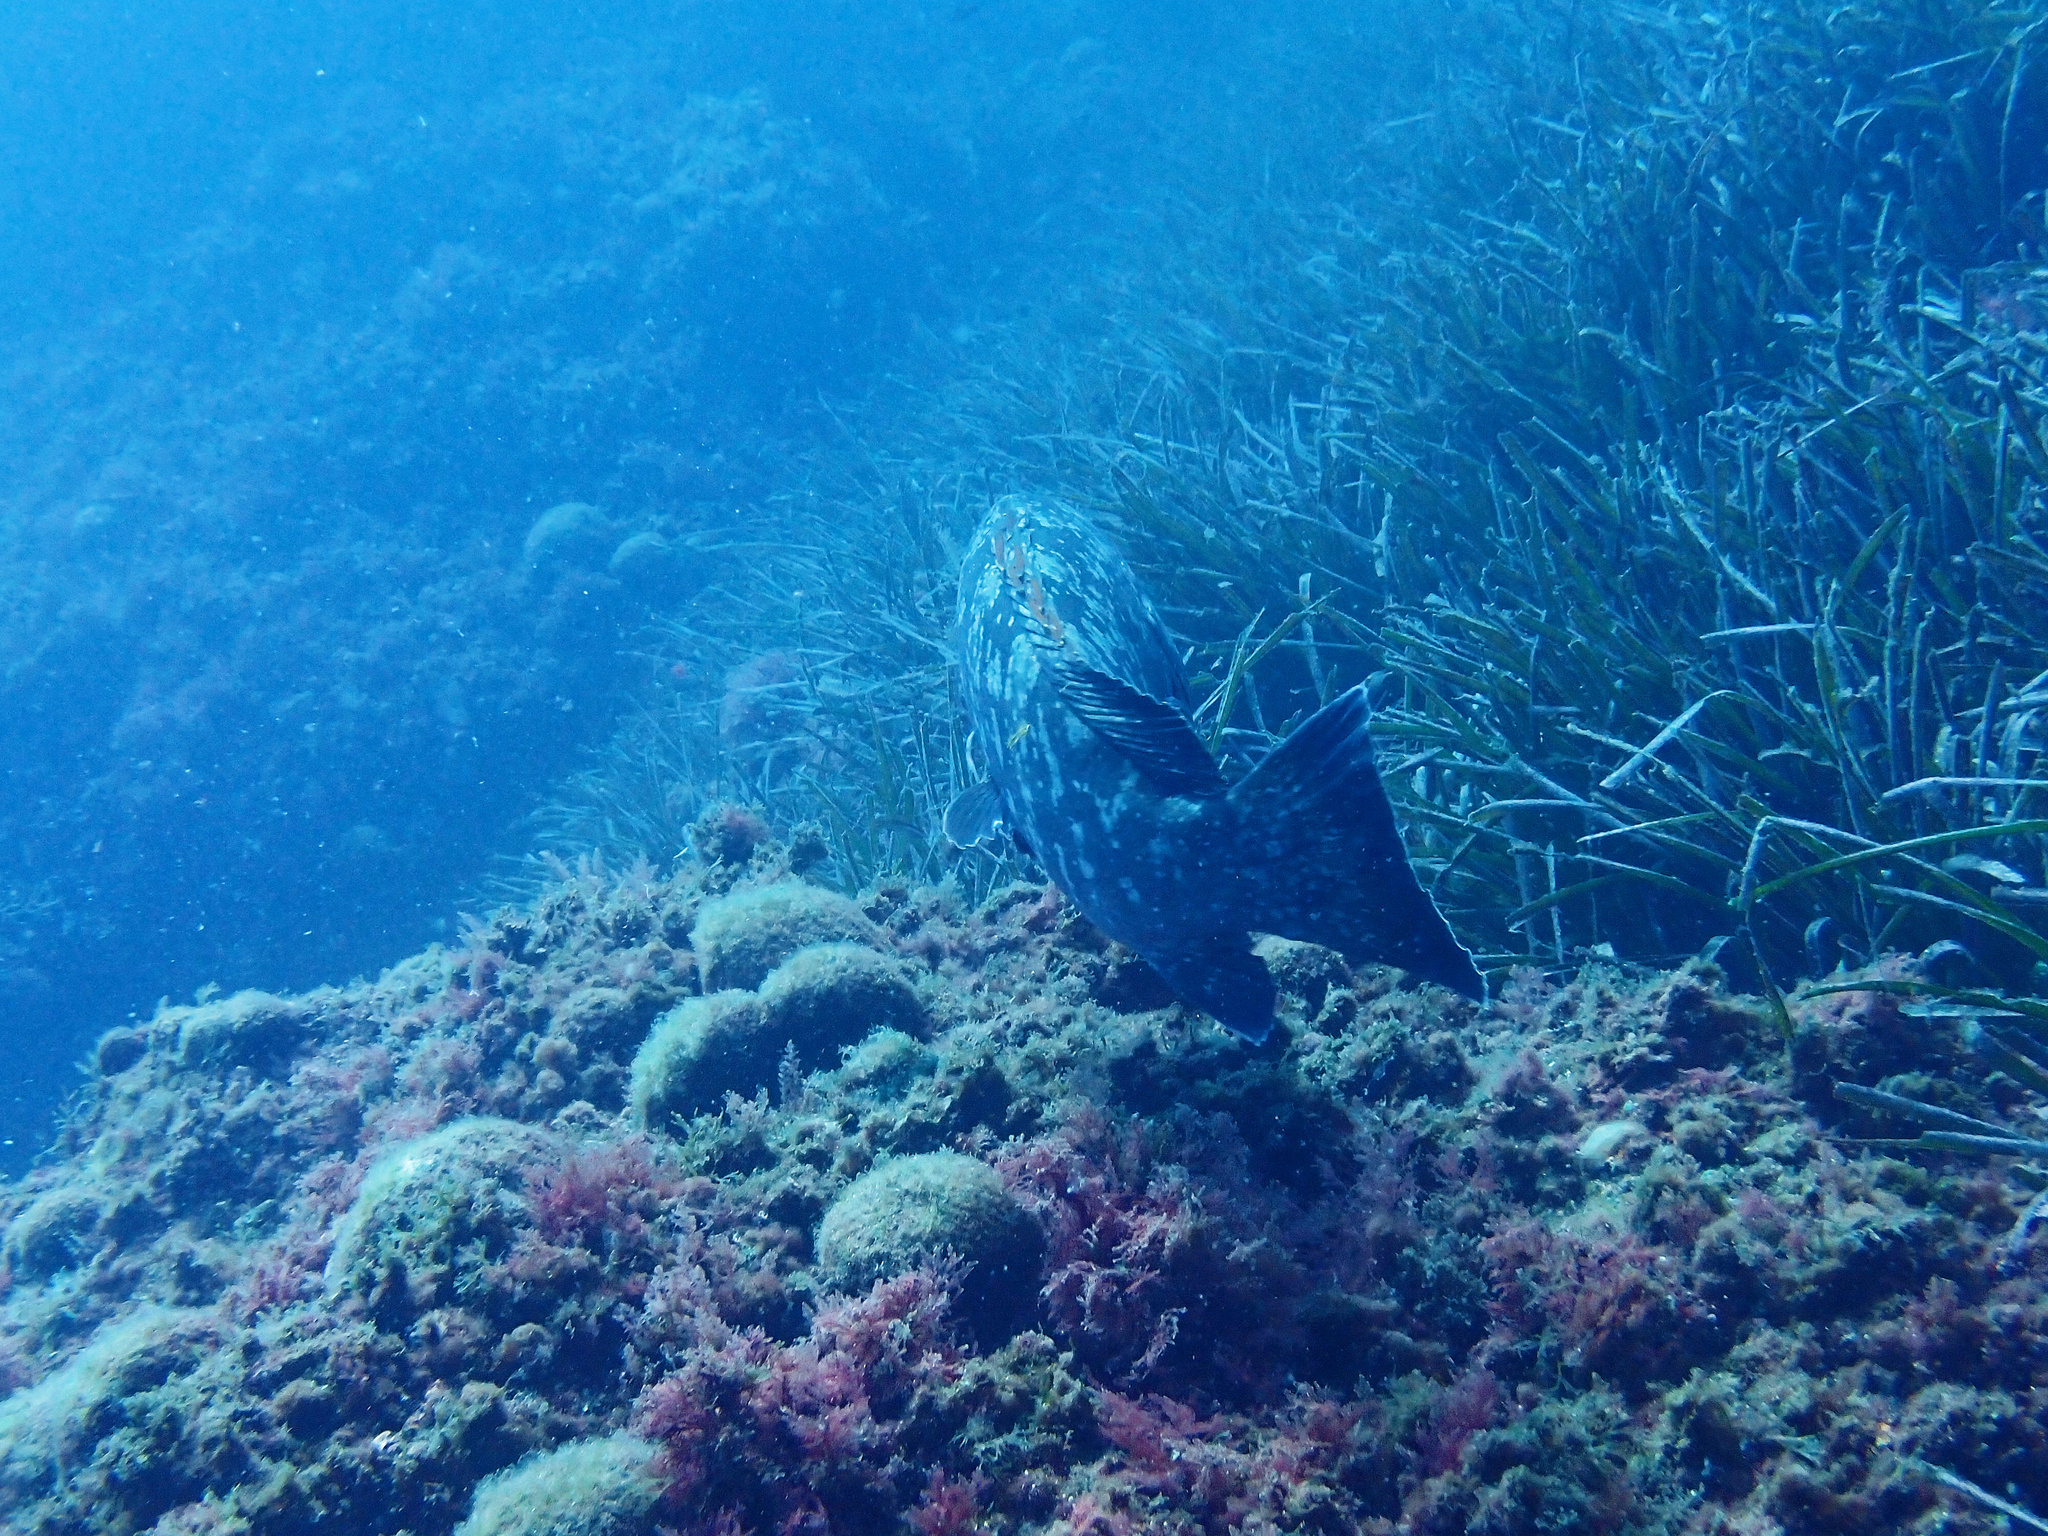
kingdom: Animalia
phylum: Chordata
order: Perciformes
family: Serranidae
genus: Epinephelus
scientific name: Epinephelus marginatus
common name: Dusky grouper
